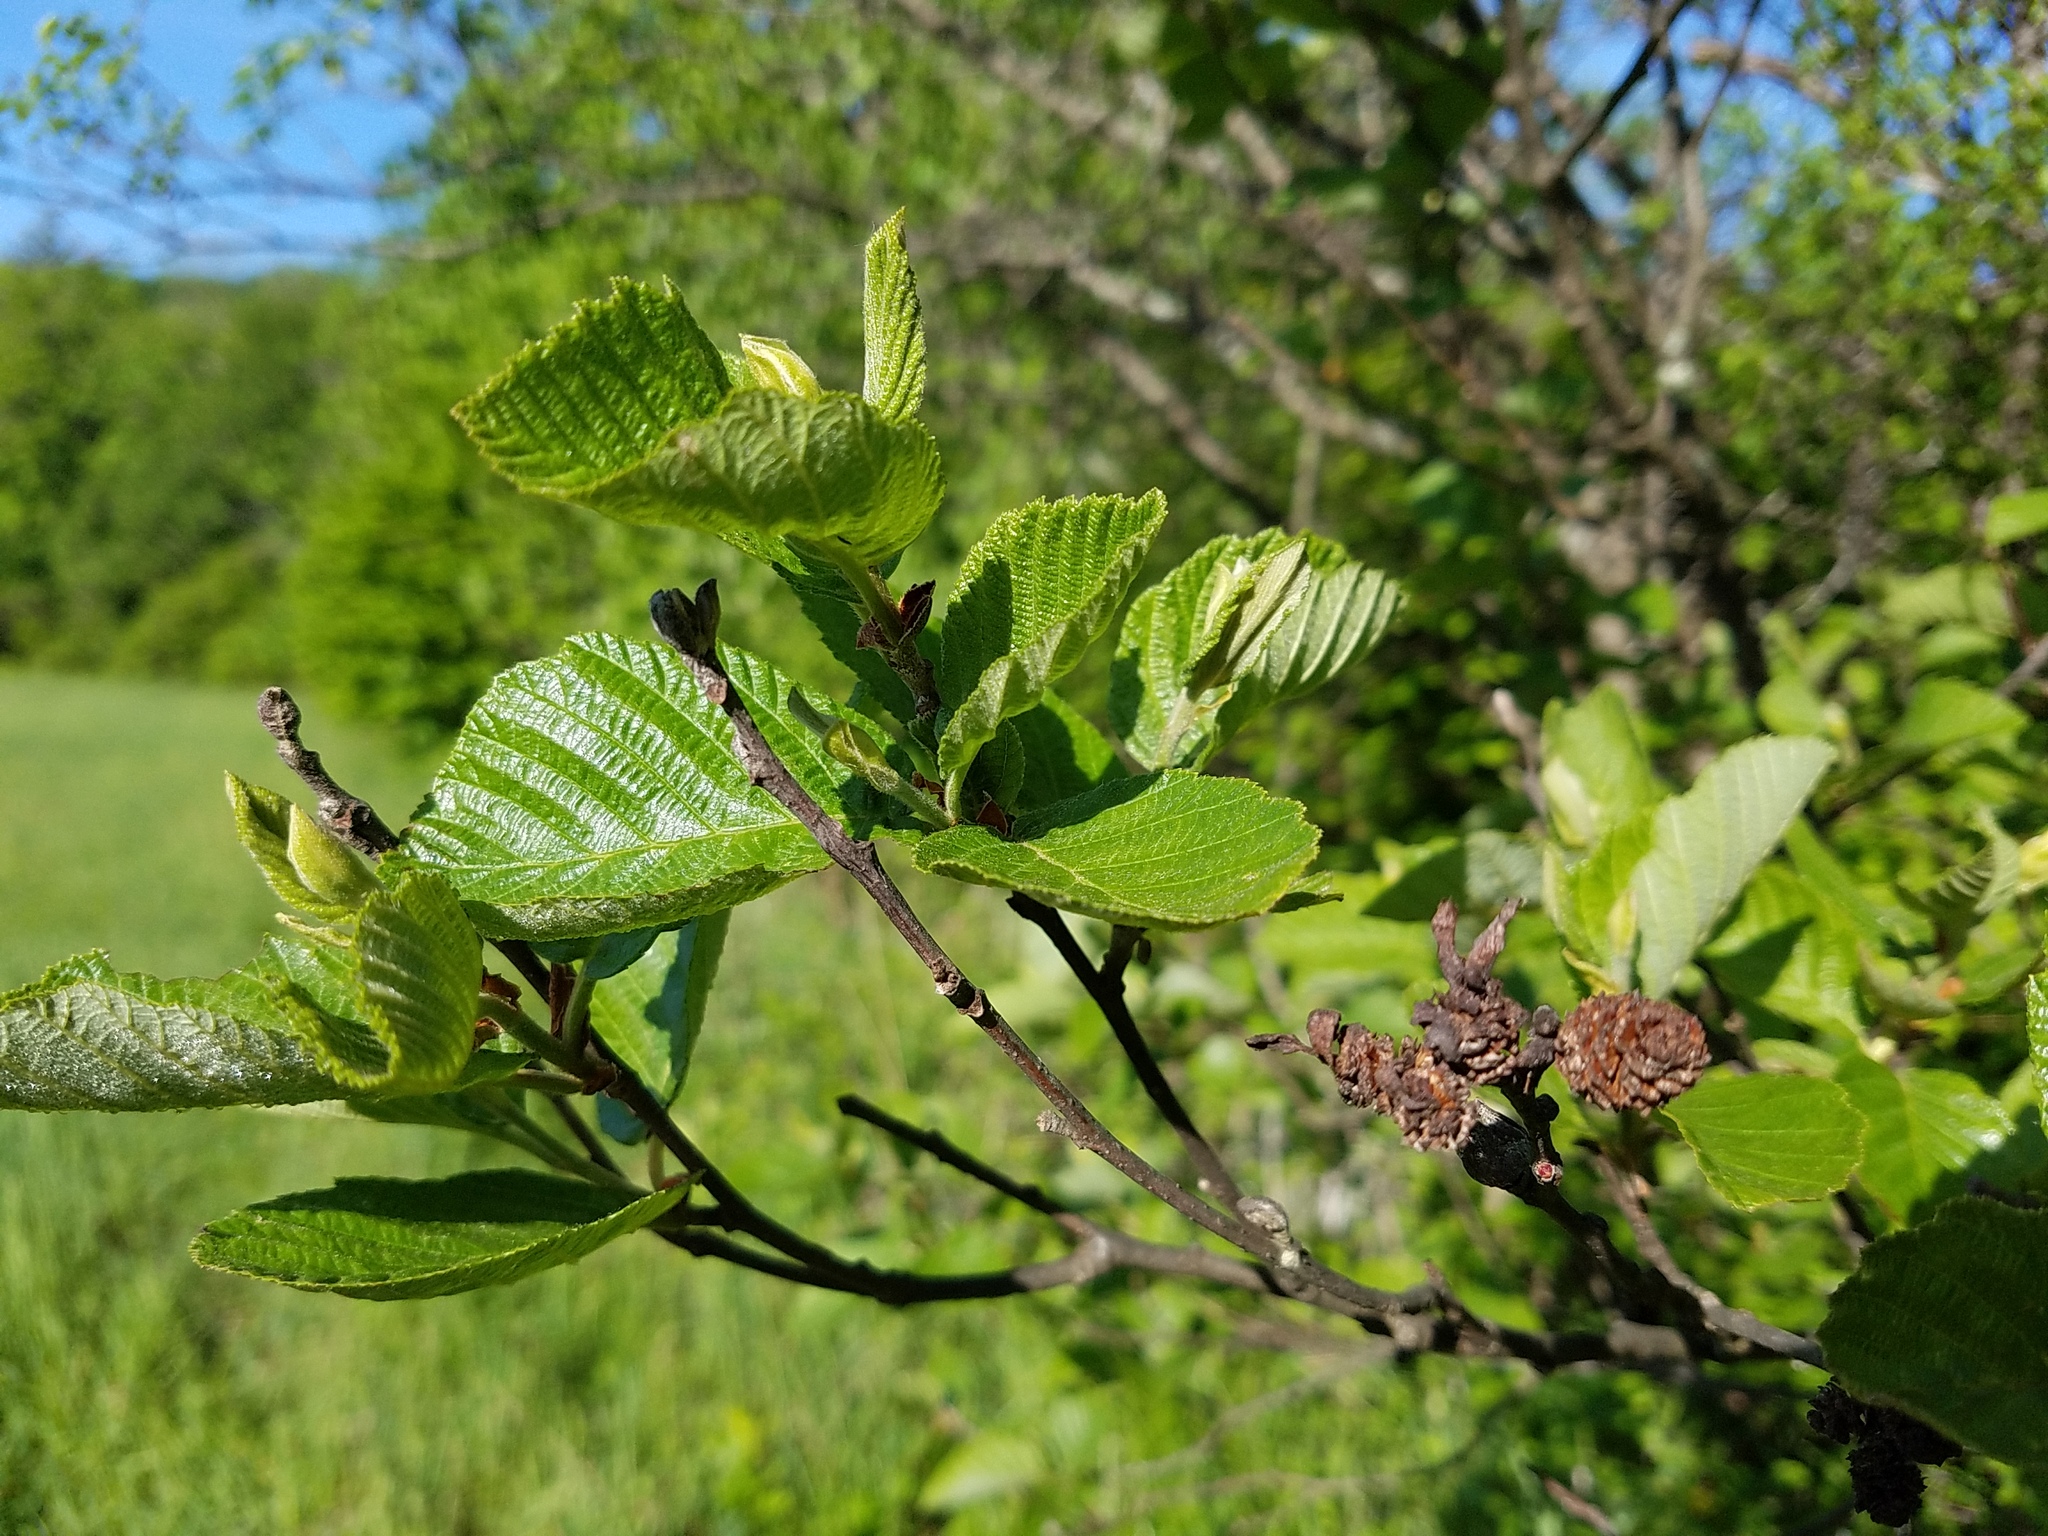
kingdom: Plantae
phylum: Tracheophyta
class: Magnoliopsida
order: Fagales
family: Betulaceae
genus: Alnus
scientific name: Alnus incana
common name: Grey alder
